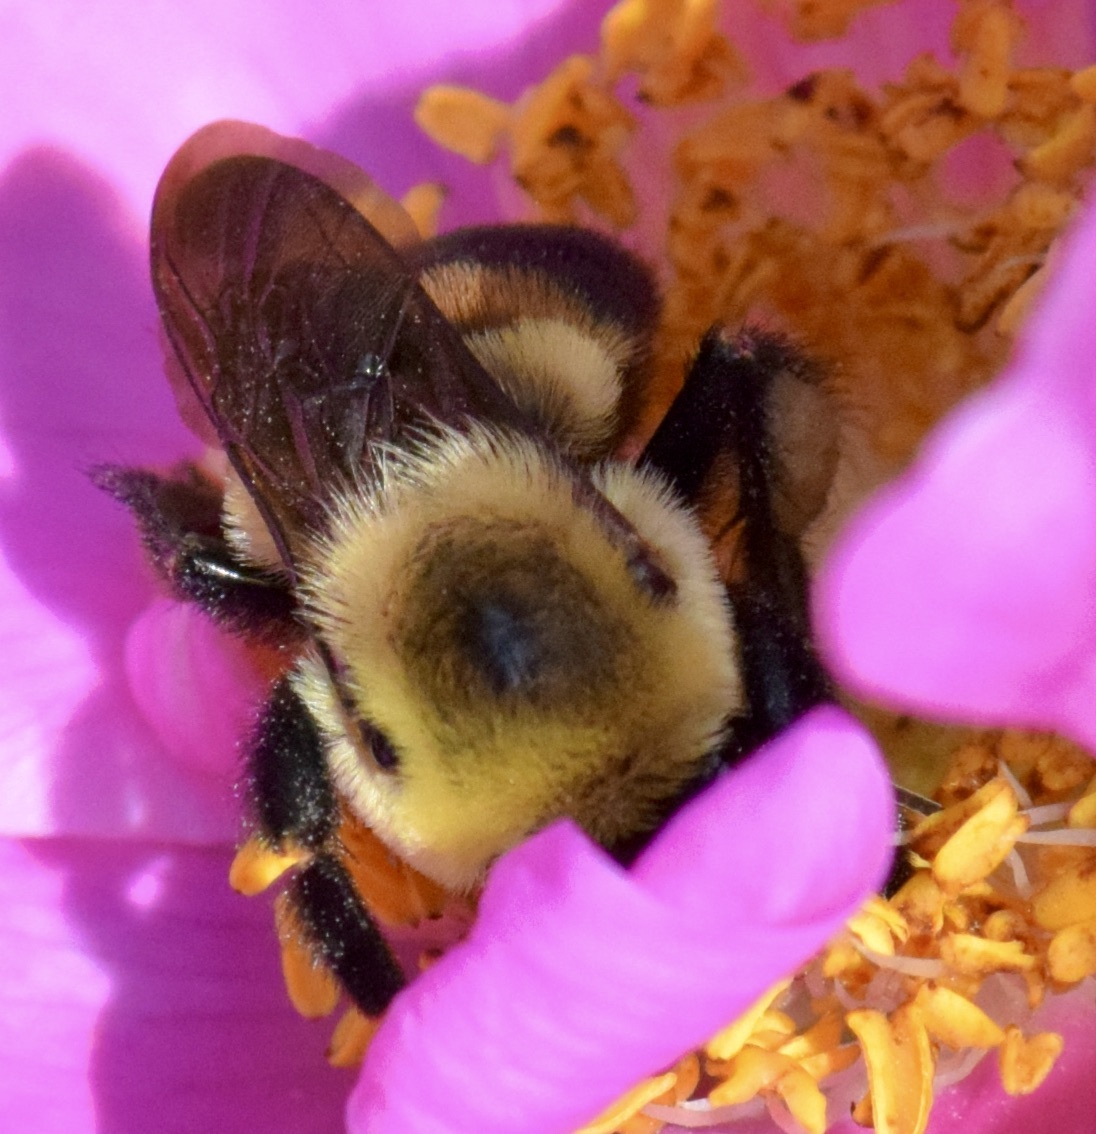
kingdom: Animalia
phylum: Arthropoda
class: Insecta
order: Hymenoptera
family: Apidae
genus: Bombus
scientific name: Bombus griseocollis
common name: Brown-belted bumble bee
